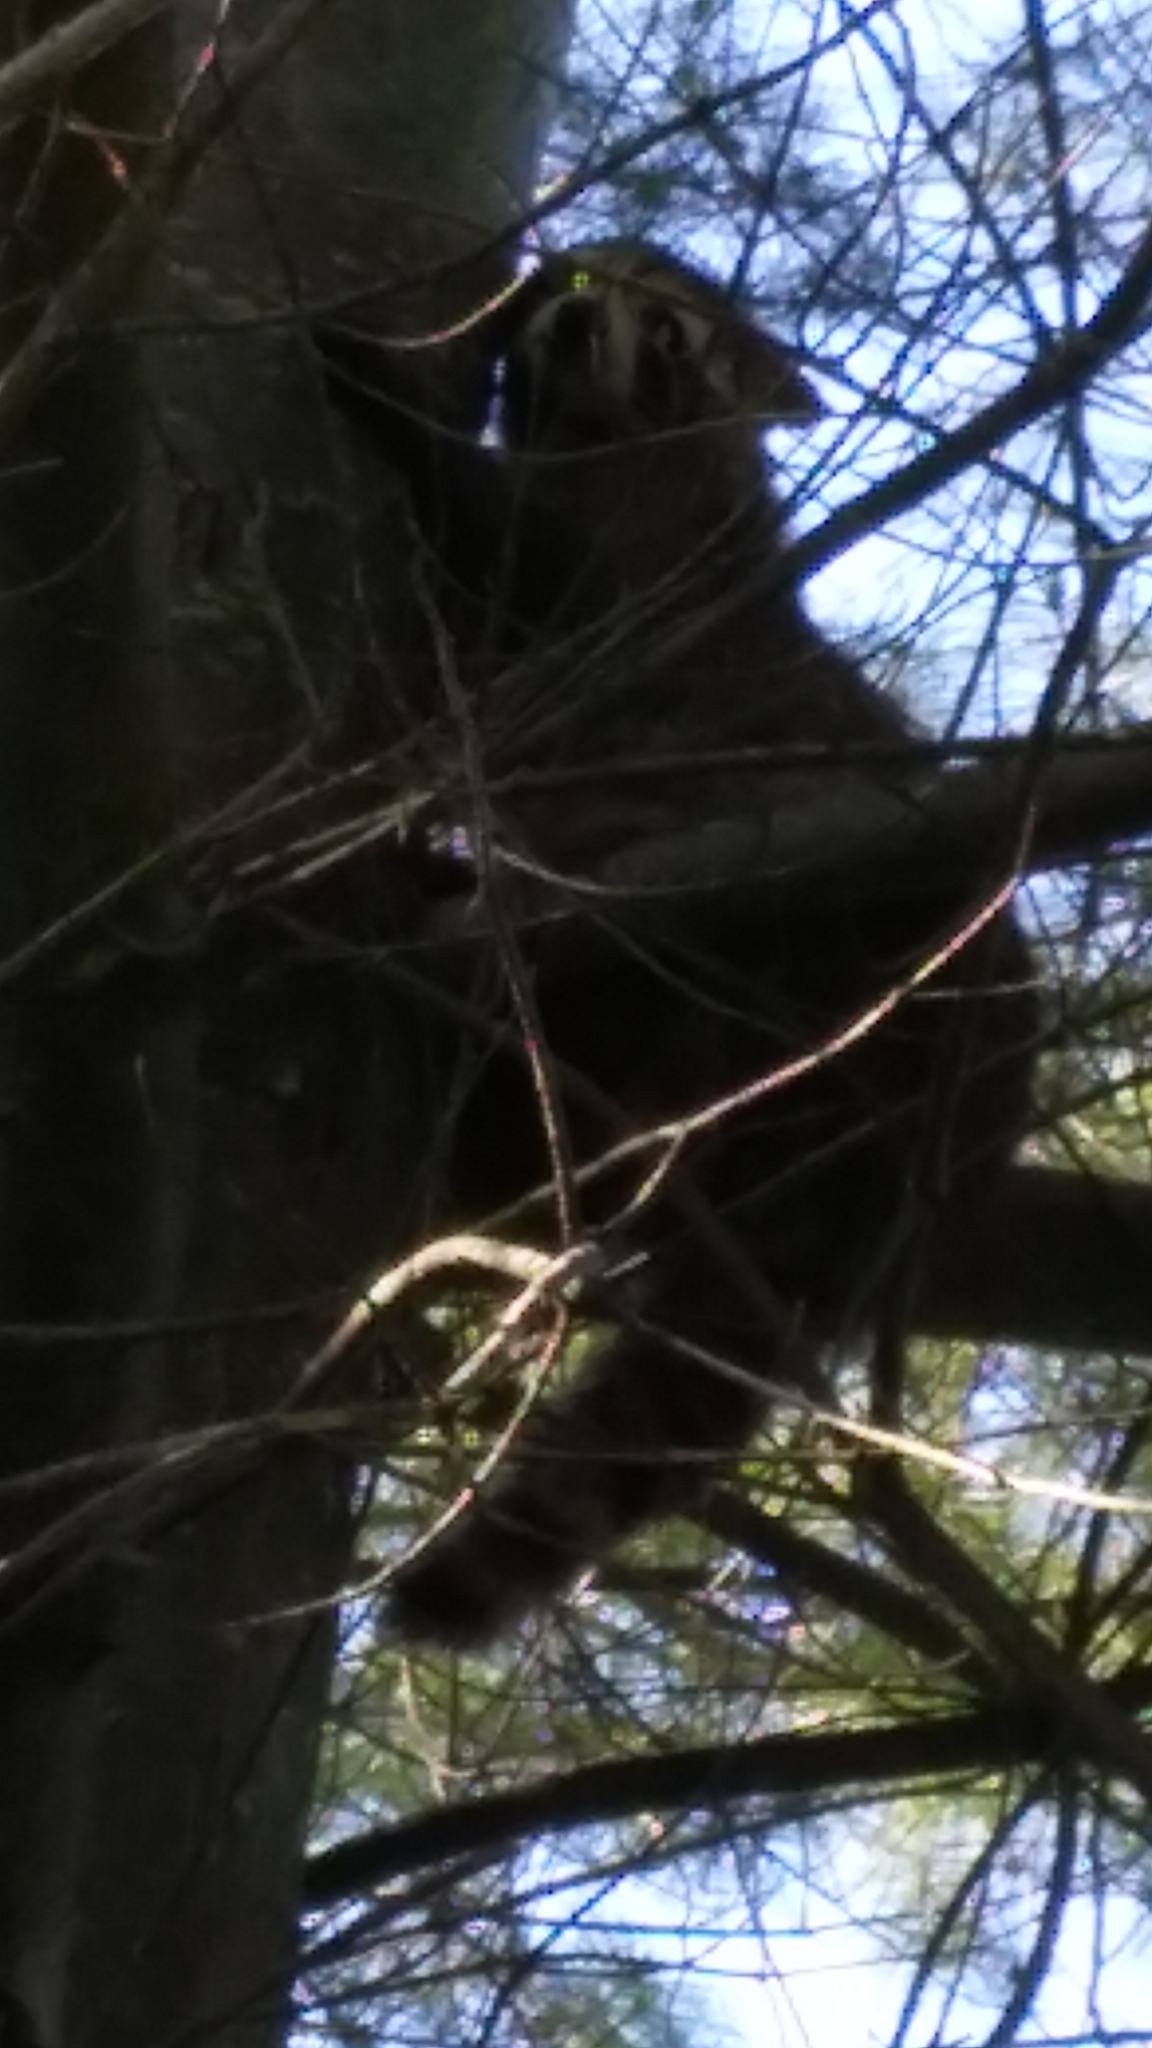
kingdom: Animalia
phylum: Chordata
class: Mammalia
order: Carnivora
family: Procyonidae
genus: Procyon
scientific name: Procyon lotor
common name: Raccoon
